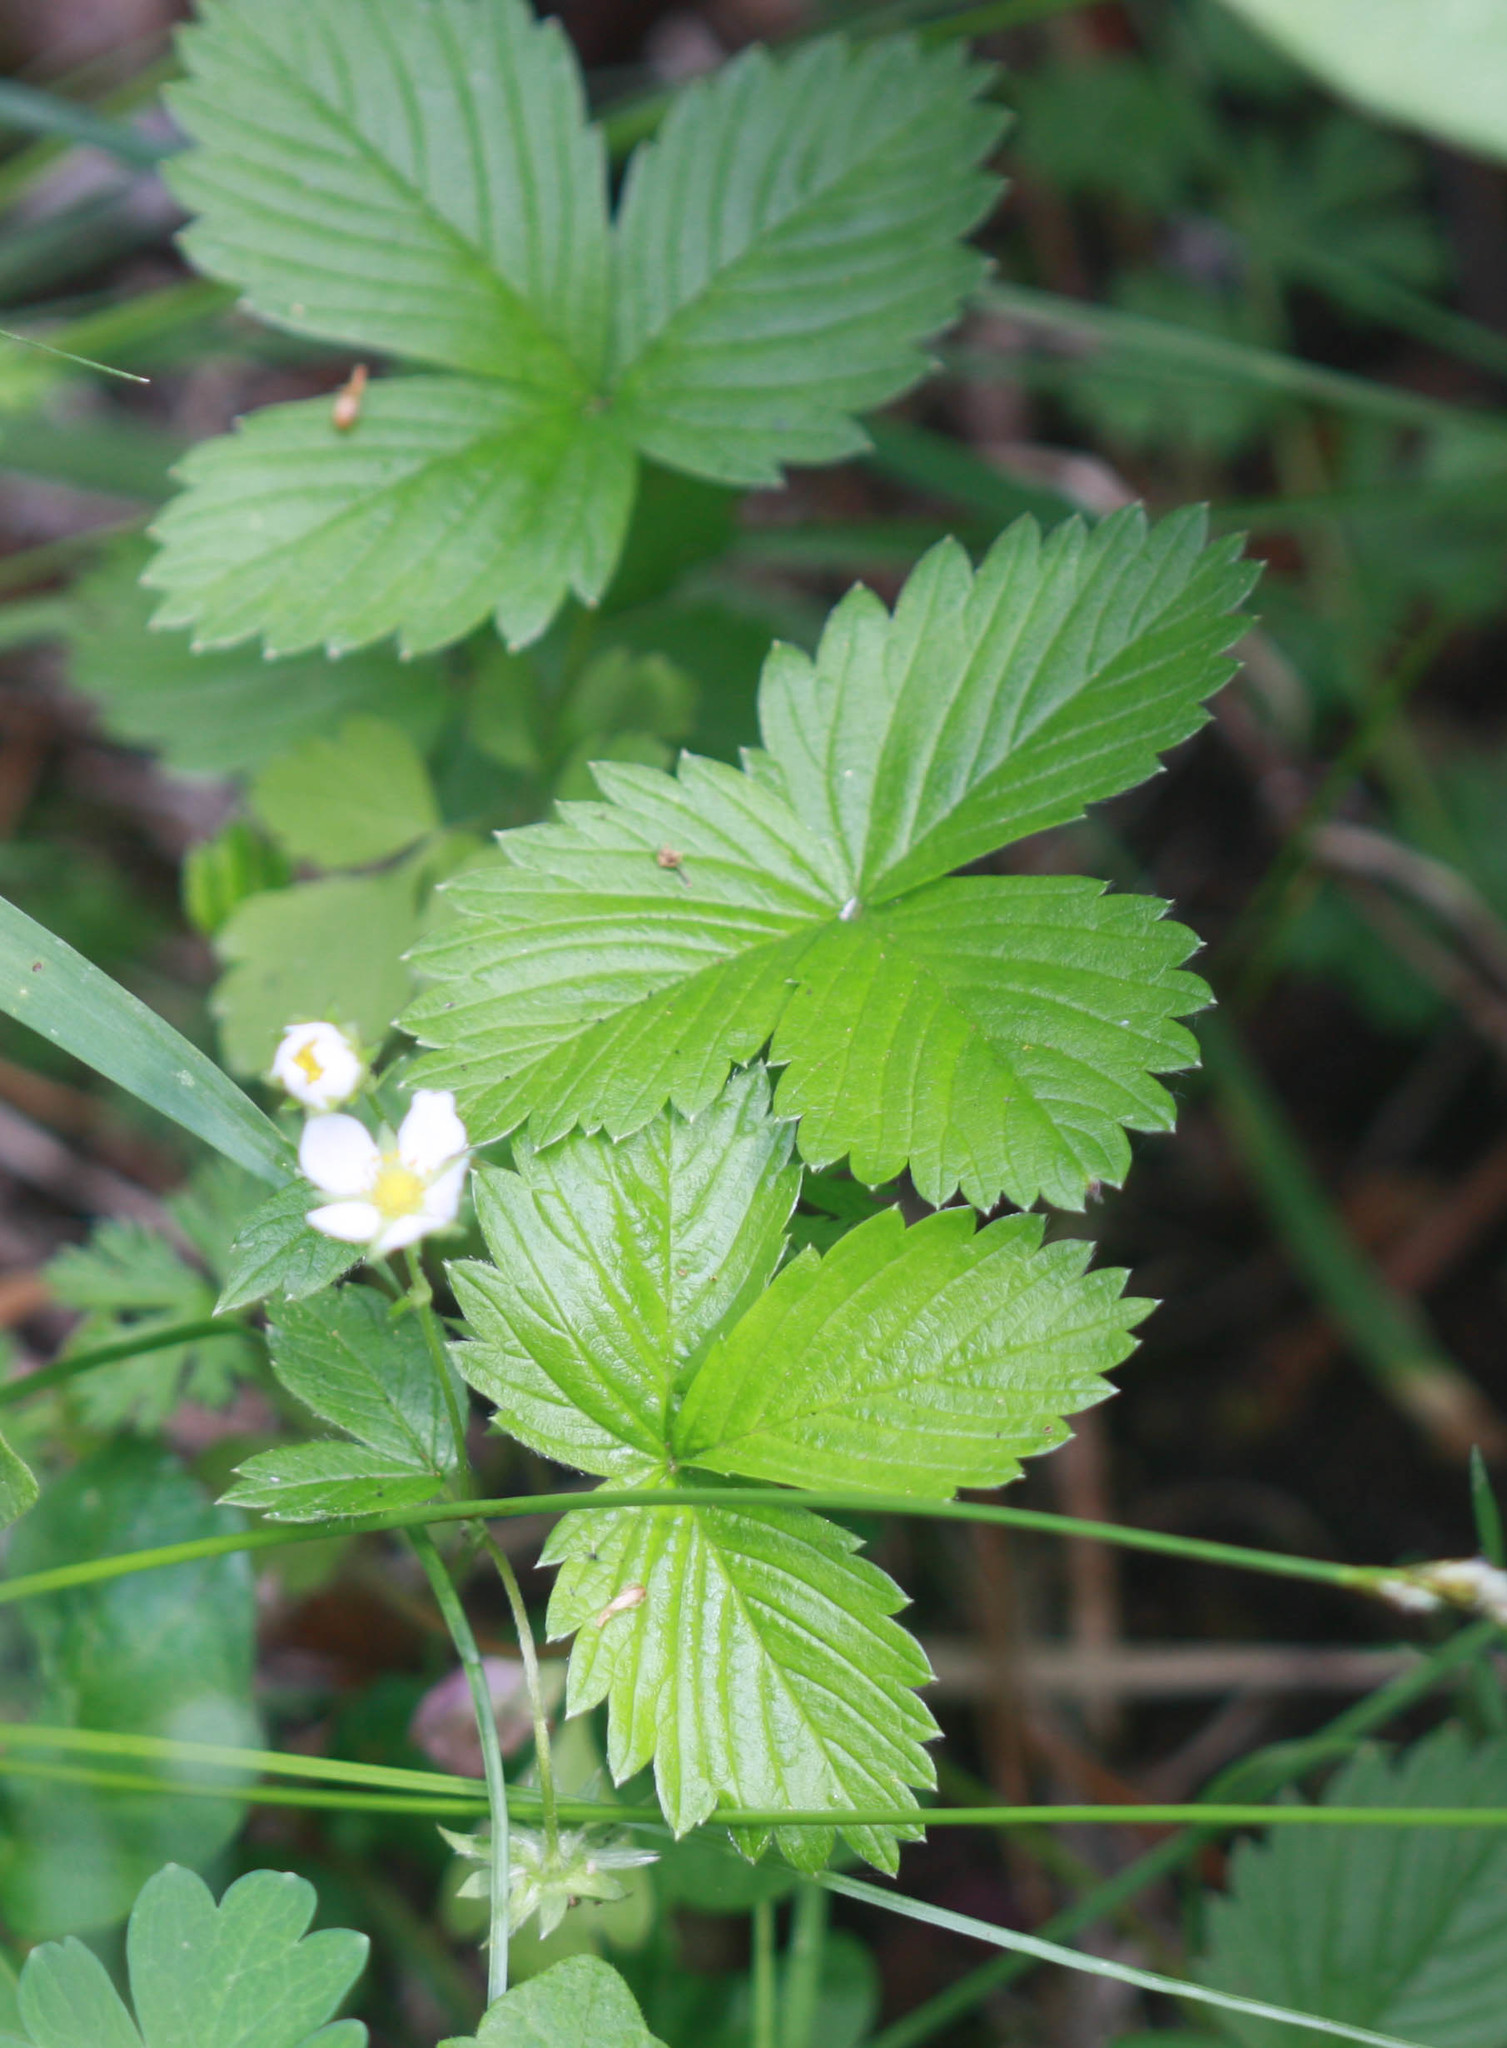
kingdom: Plantae
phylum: Tracheophyta
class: Magnoliopsida
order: Rosales
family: Rosaceae
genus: Fragaria
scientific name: Fragaria vesca
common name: Wild strawberry
